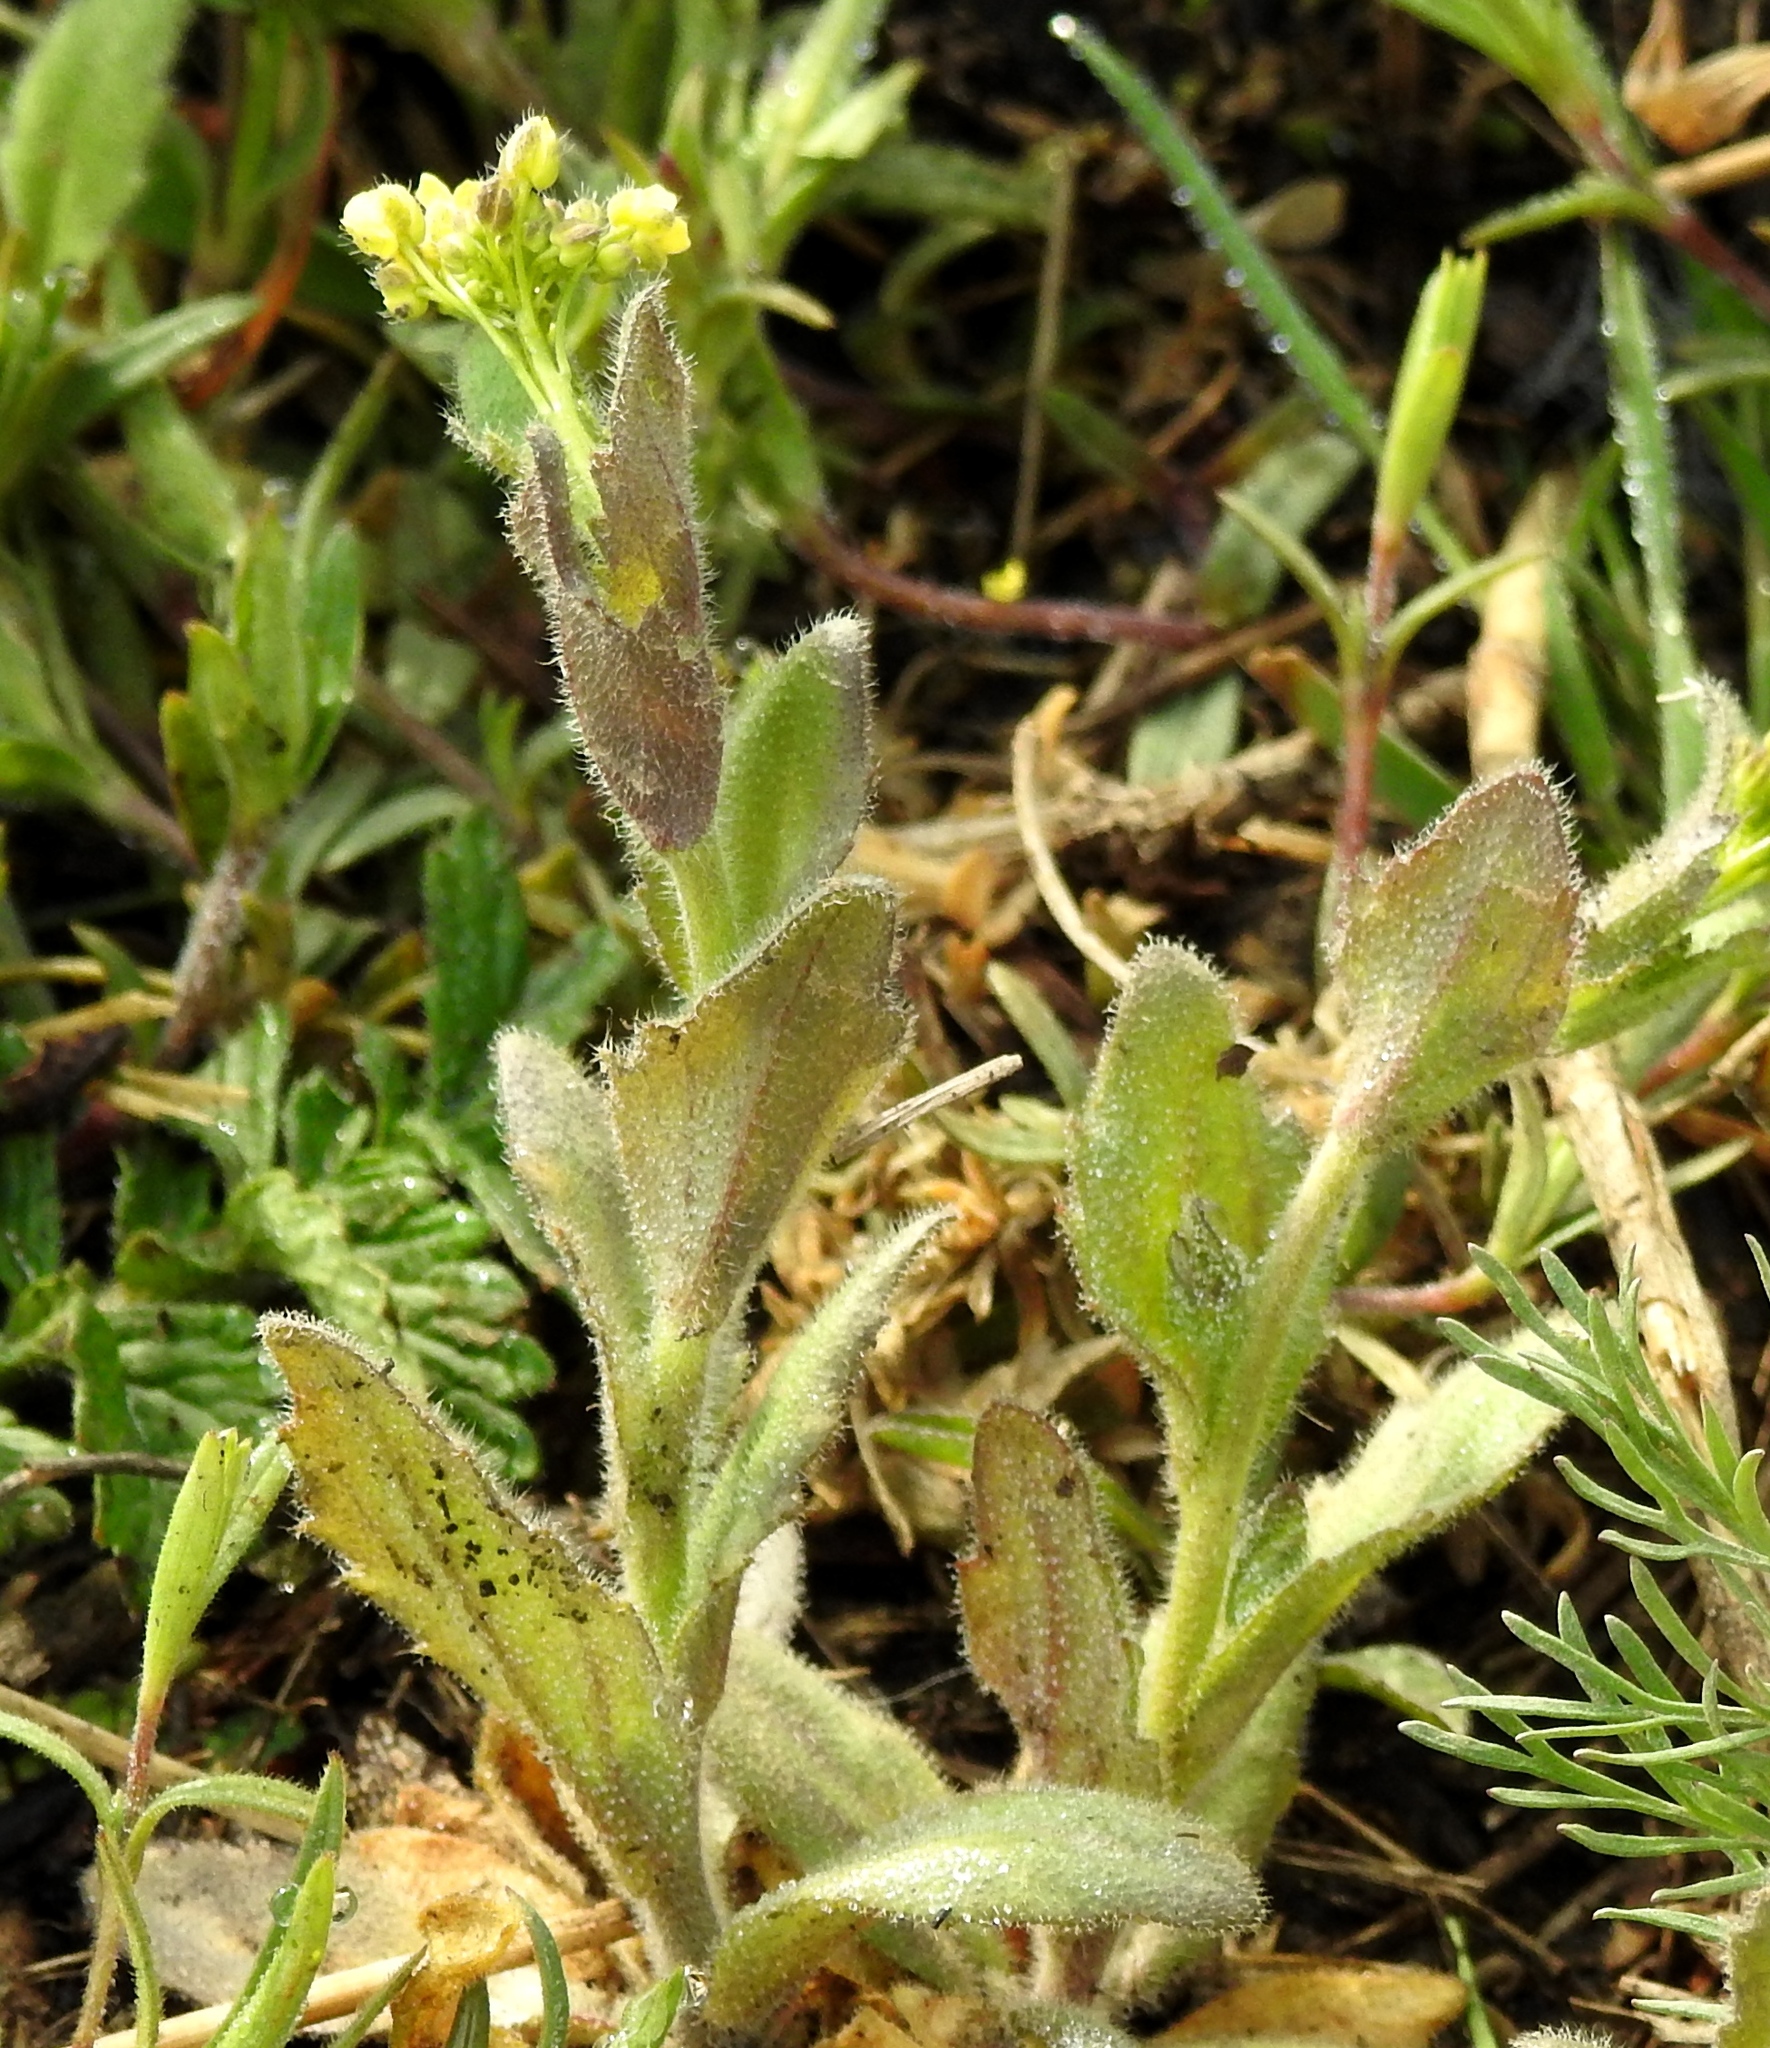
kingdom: Plantae
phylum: Tracheophyta
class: Magnoliopsida
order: Brassicales
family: Brassicaceae
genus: Draba
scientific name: Draba nemorosa
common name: Wood whitlow-grass
